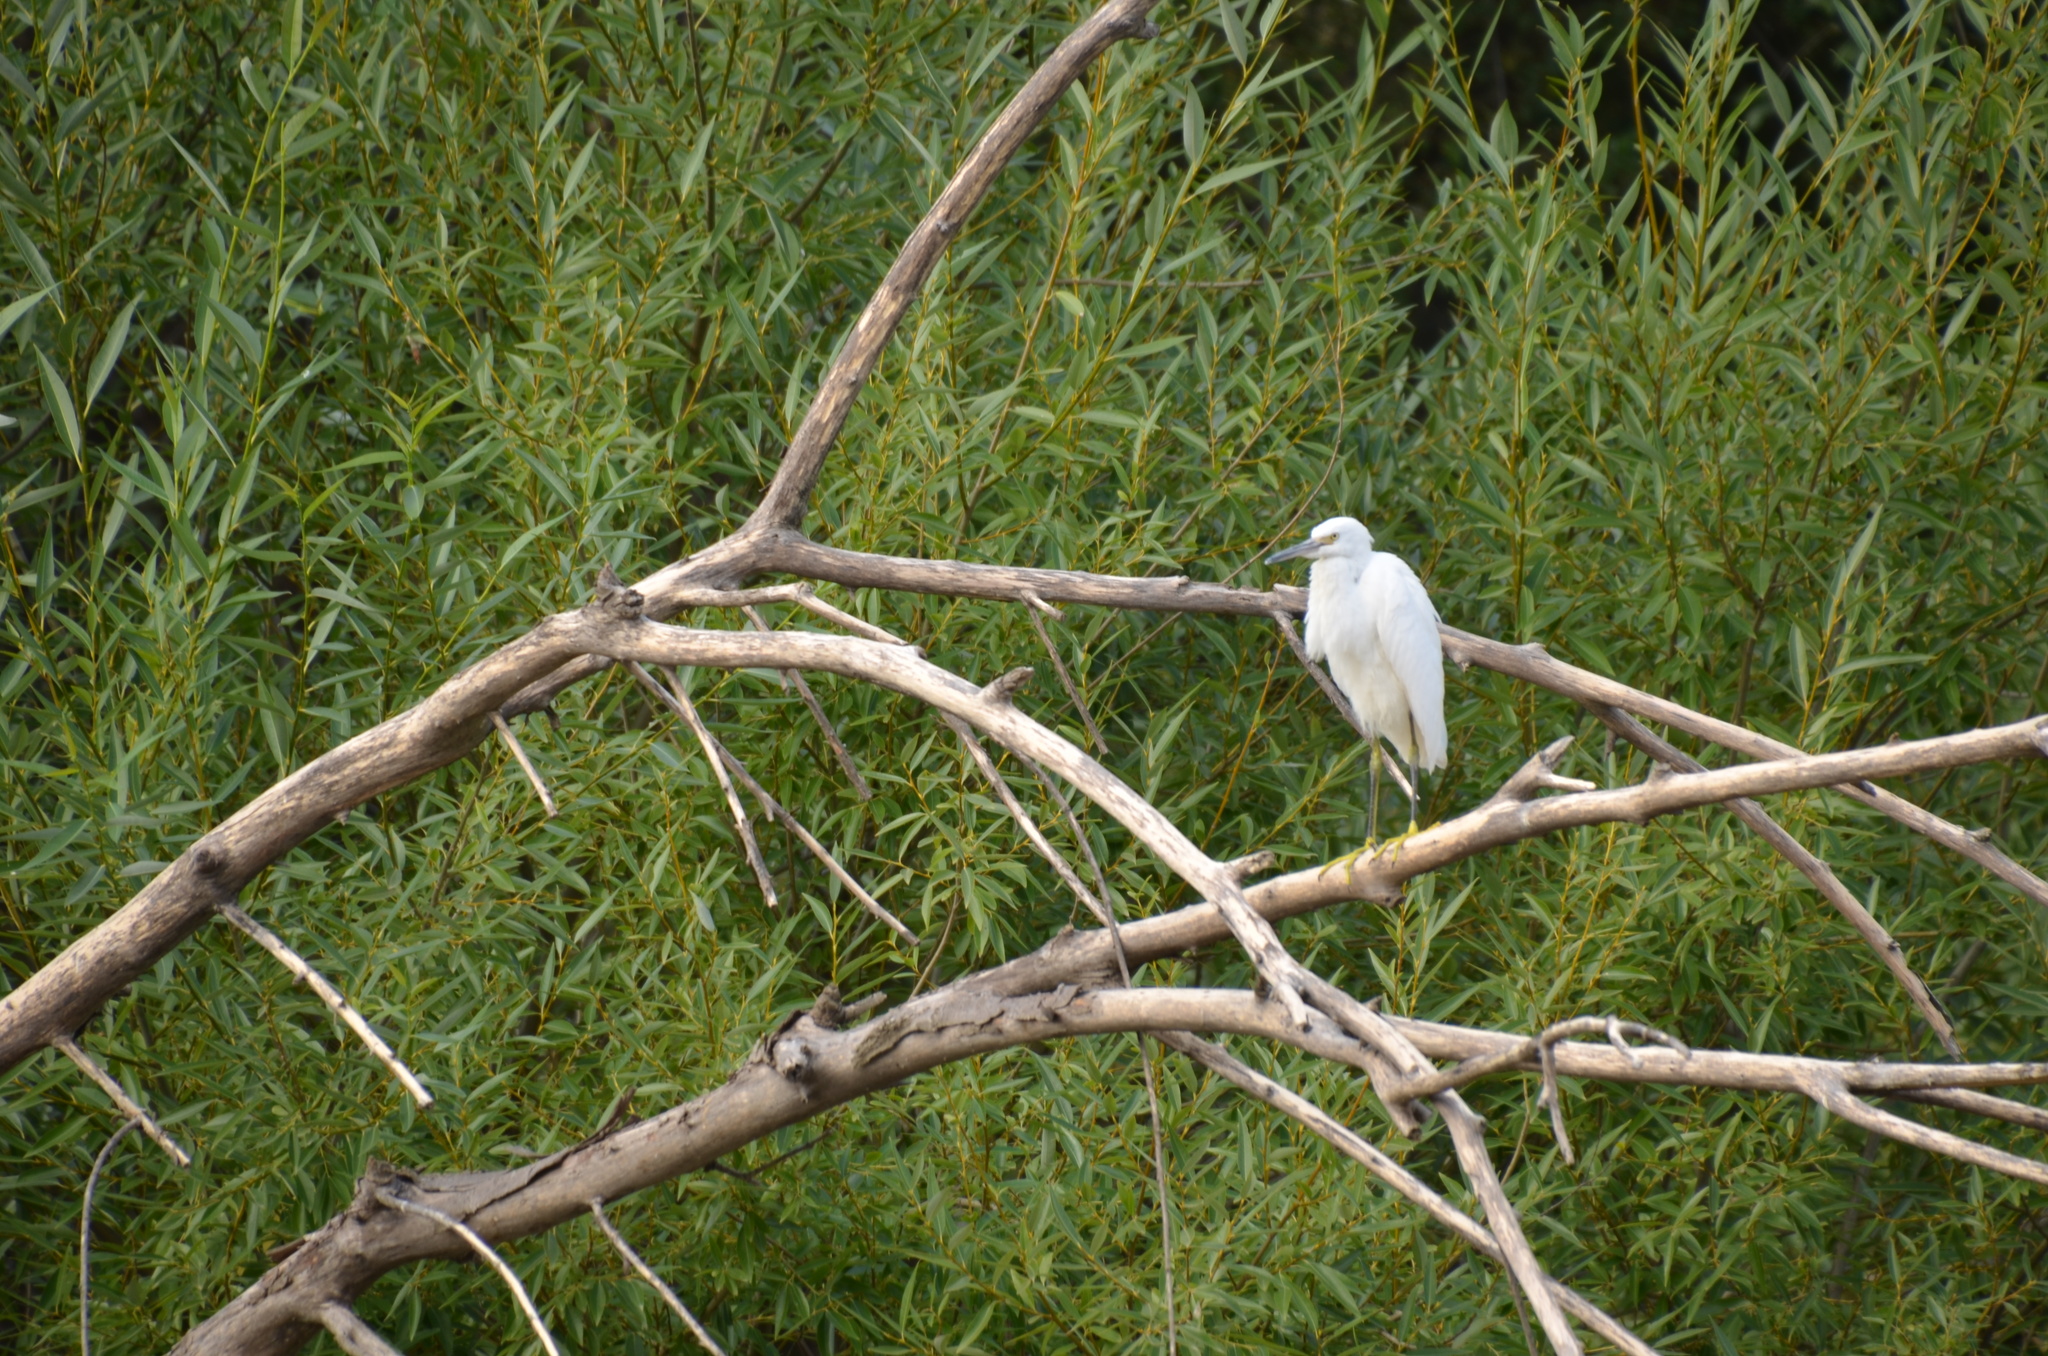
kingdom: Animalia
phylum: Chordata
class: Aves
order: Pelecaniformes
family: Ardeidae
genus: Egretta
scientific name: Egretta thula
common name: Snowy egret
